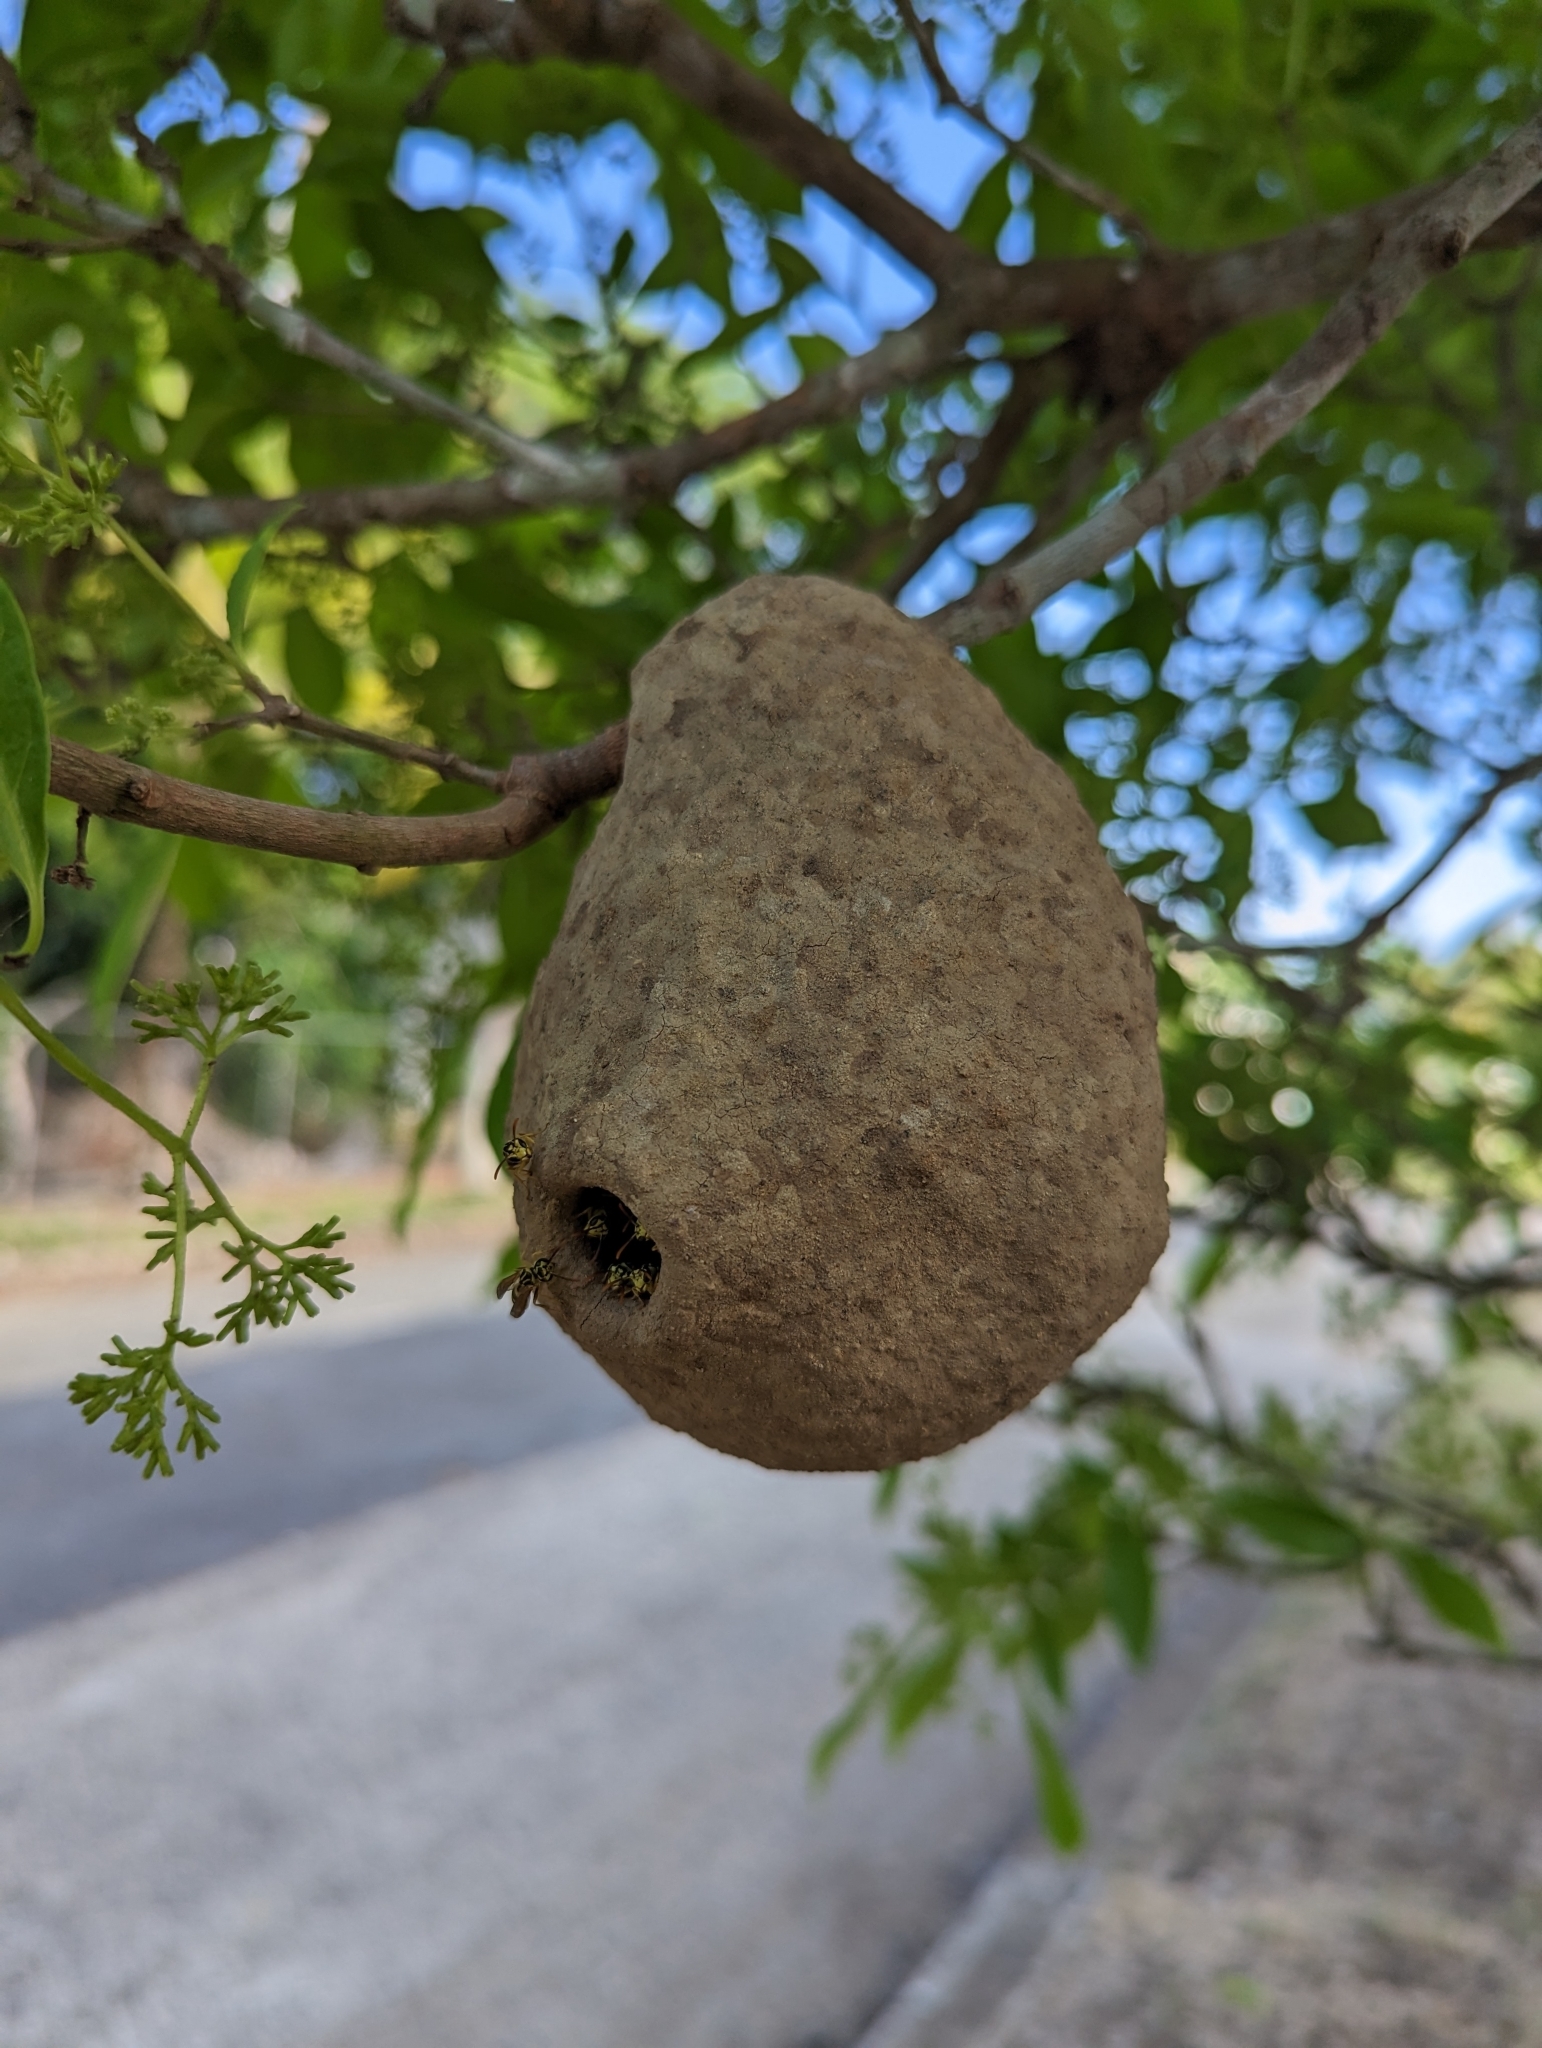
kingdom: Animalia
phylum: Arthropoda
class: Insecta
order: Hymenoptera
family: Eumenidae
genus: Polybia
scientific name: Polybia emaciata
